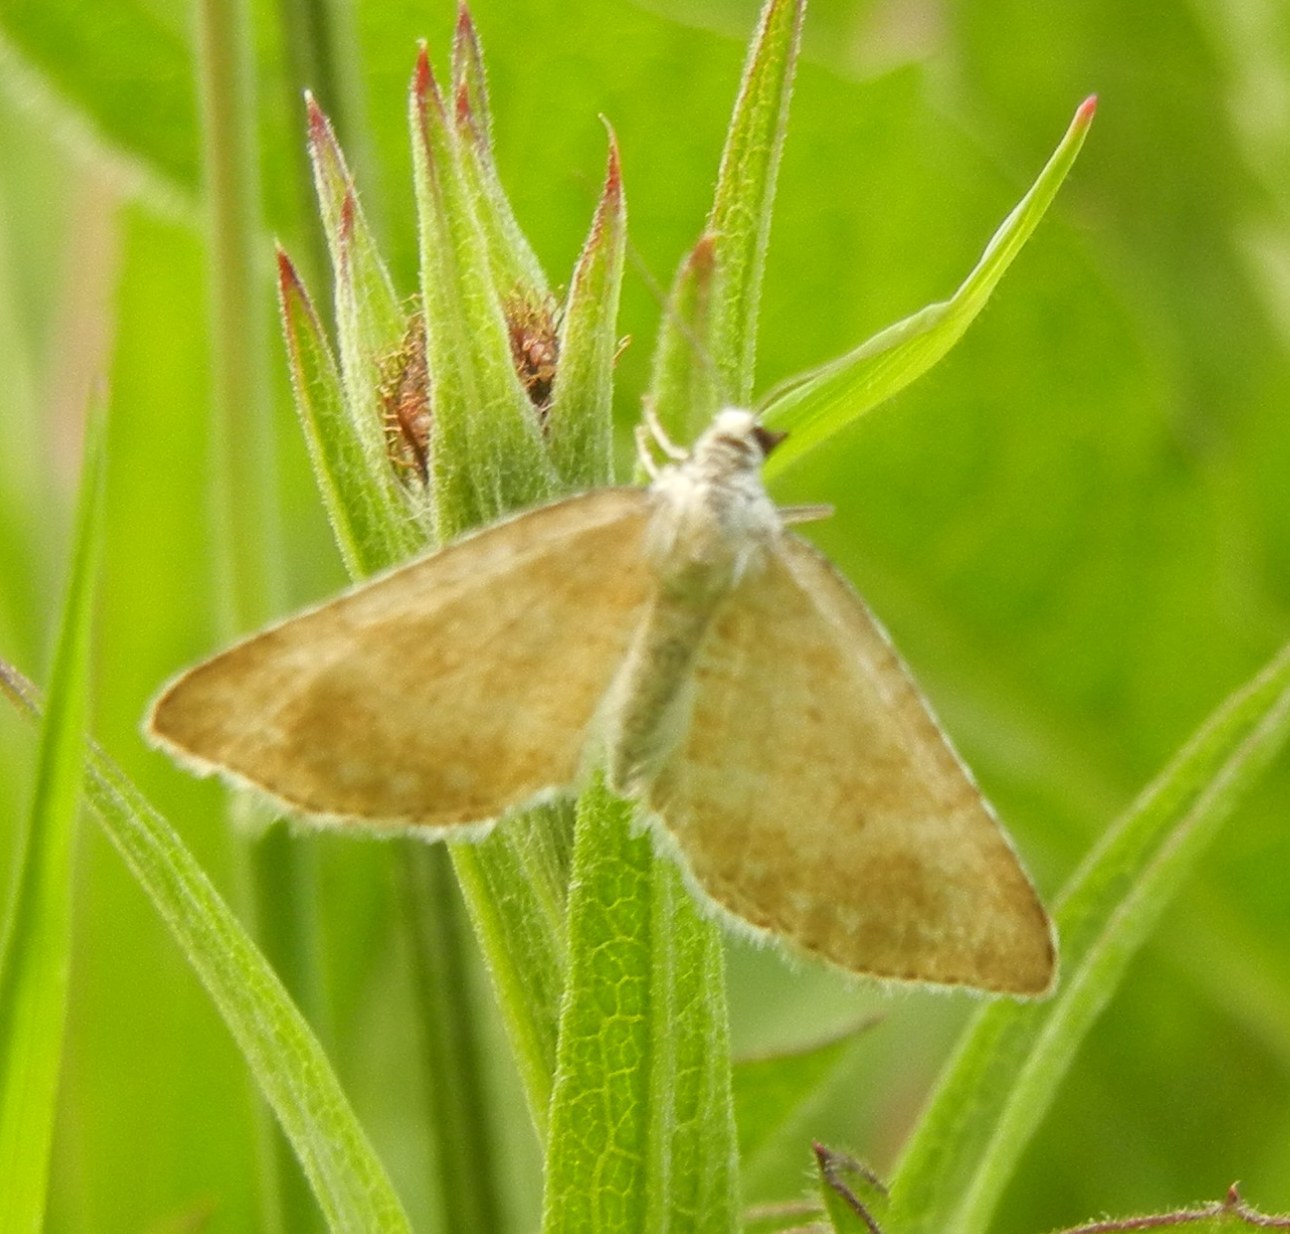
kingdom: Animalia
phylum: Arthropoda
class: Insecta
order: Lepidoptera
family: Geometridae
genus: Perizoma
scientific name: Perizoma albulata
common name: Grass rivulet
